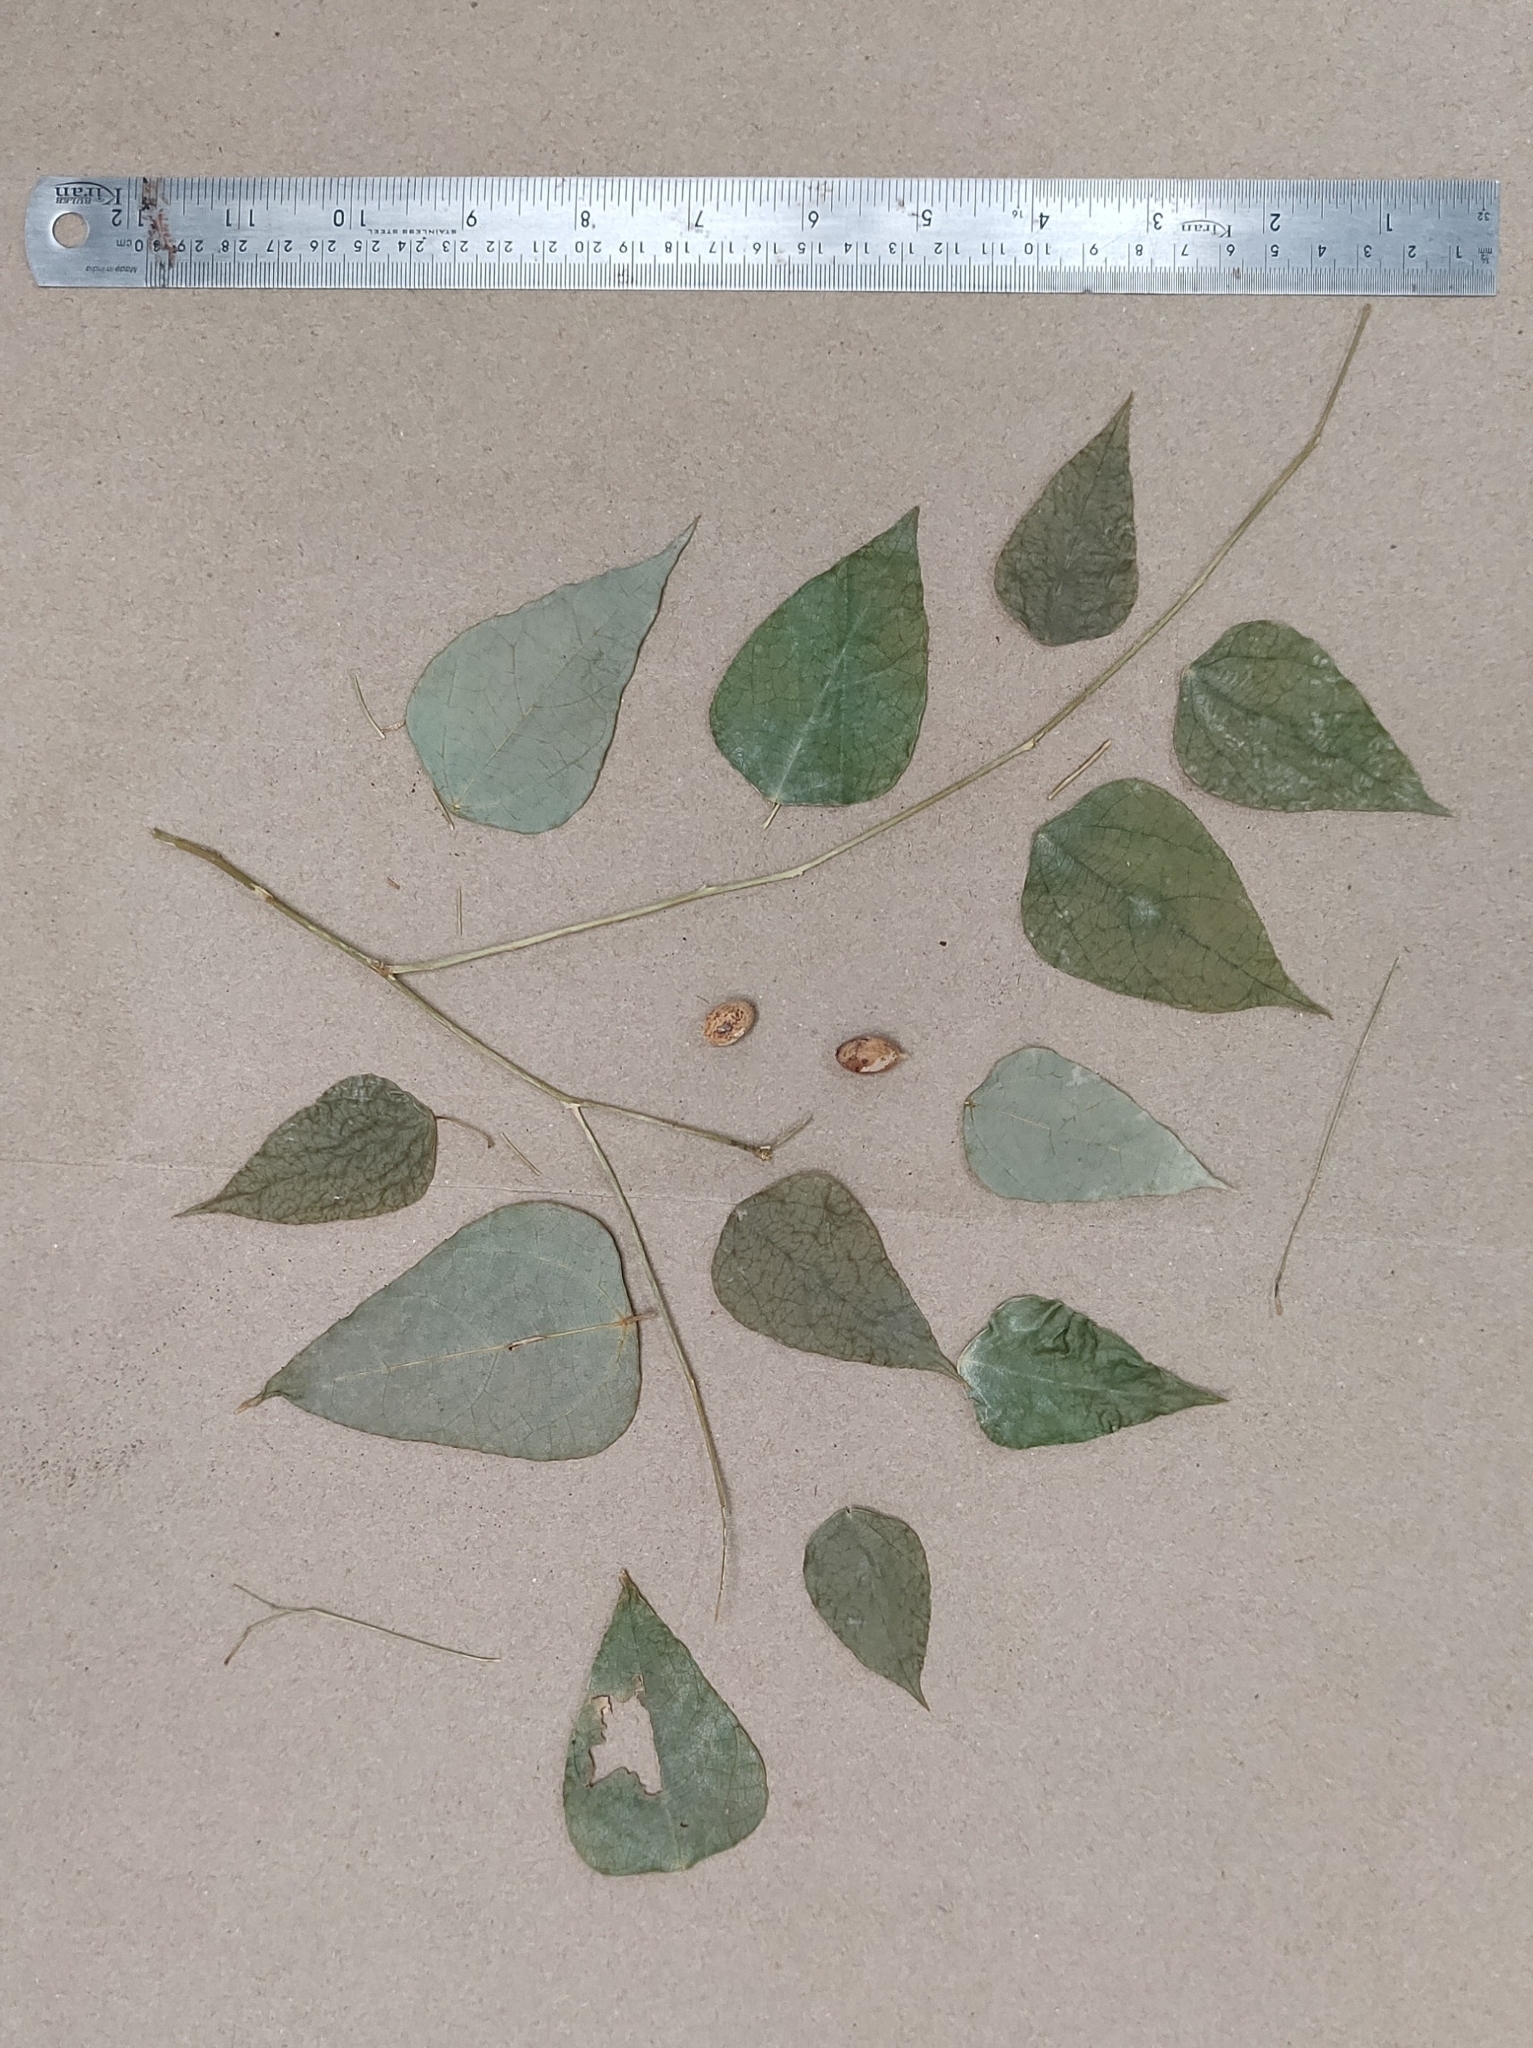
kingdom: Plantae
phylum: Tracheophyta
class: Magnoliopsida
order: Santalales
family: Erythropalaceae
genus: Erythropalum
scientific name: Erythropalum scandens
